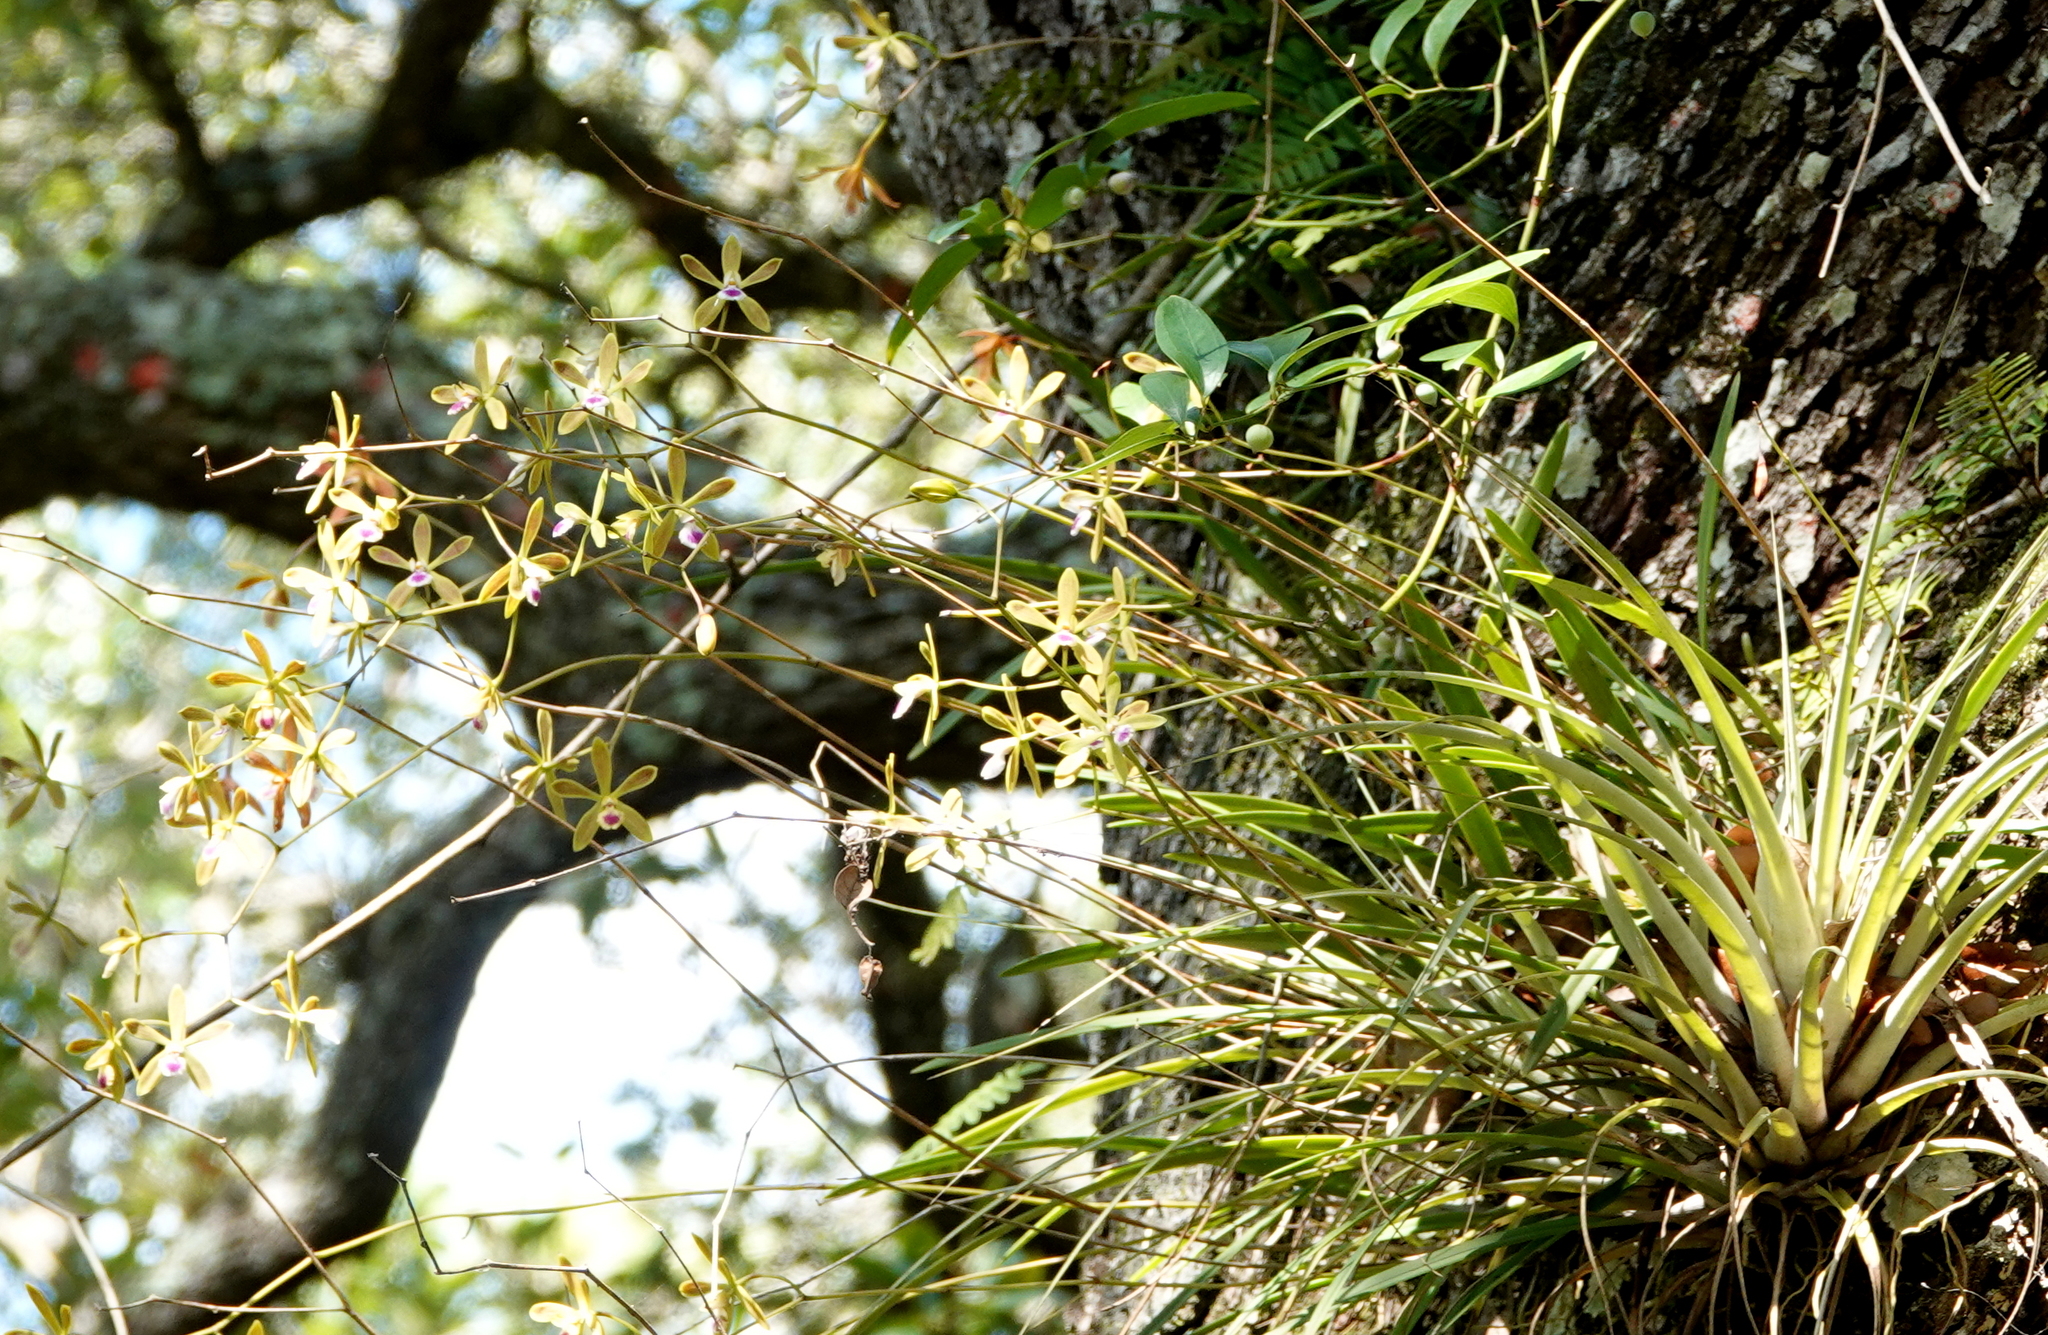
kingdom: Plantae
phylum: Tracheophyta
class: Liliopsida
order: Asparagales
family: Orchidaceae
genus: Encyclia
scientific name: Encyclia tampensis
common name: Florida butterfly orchid
